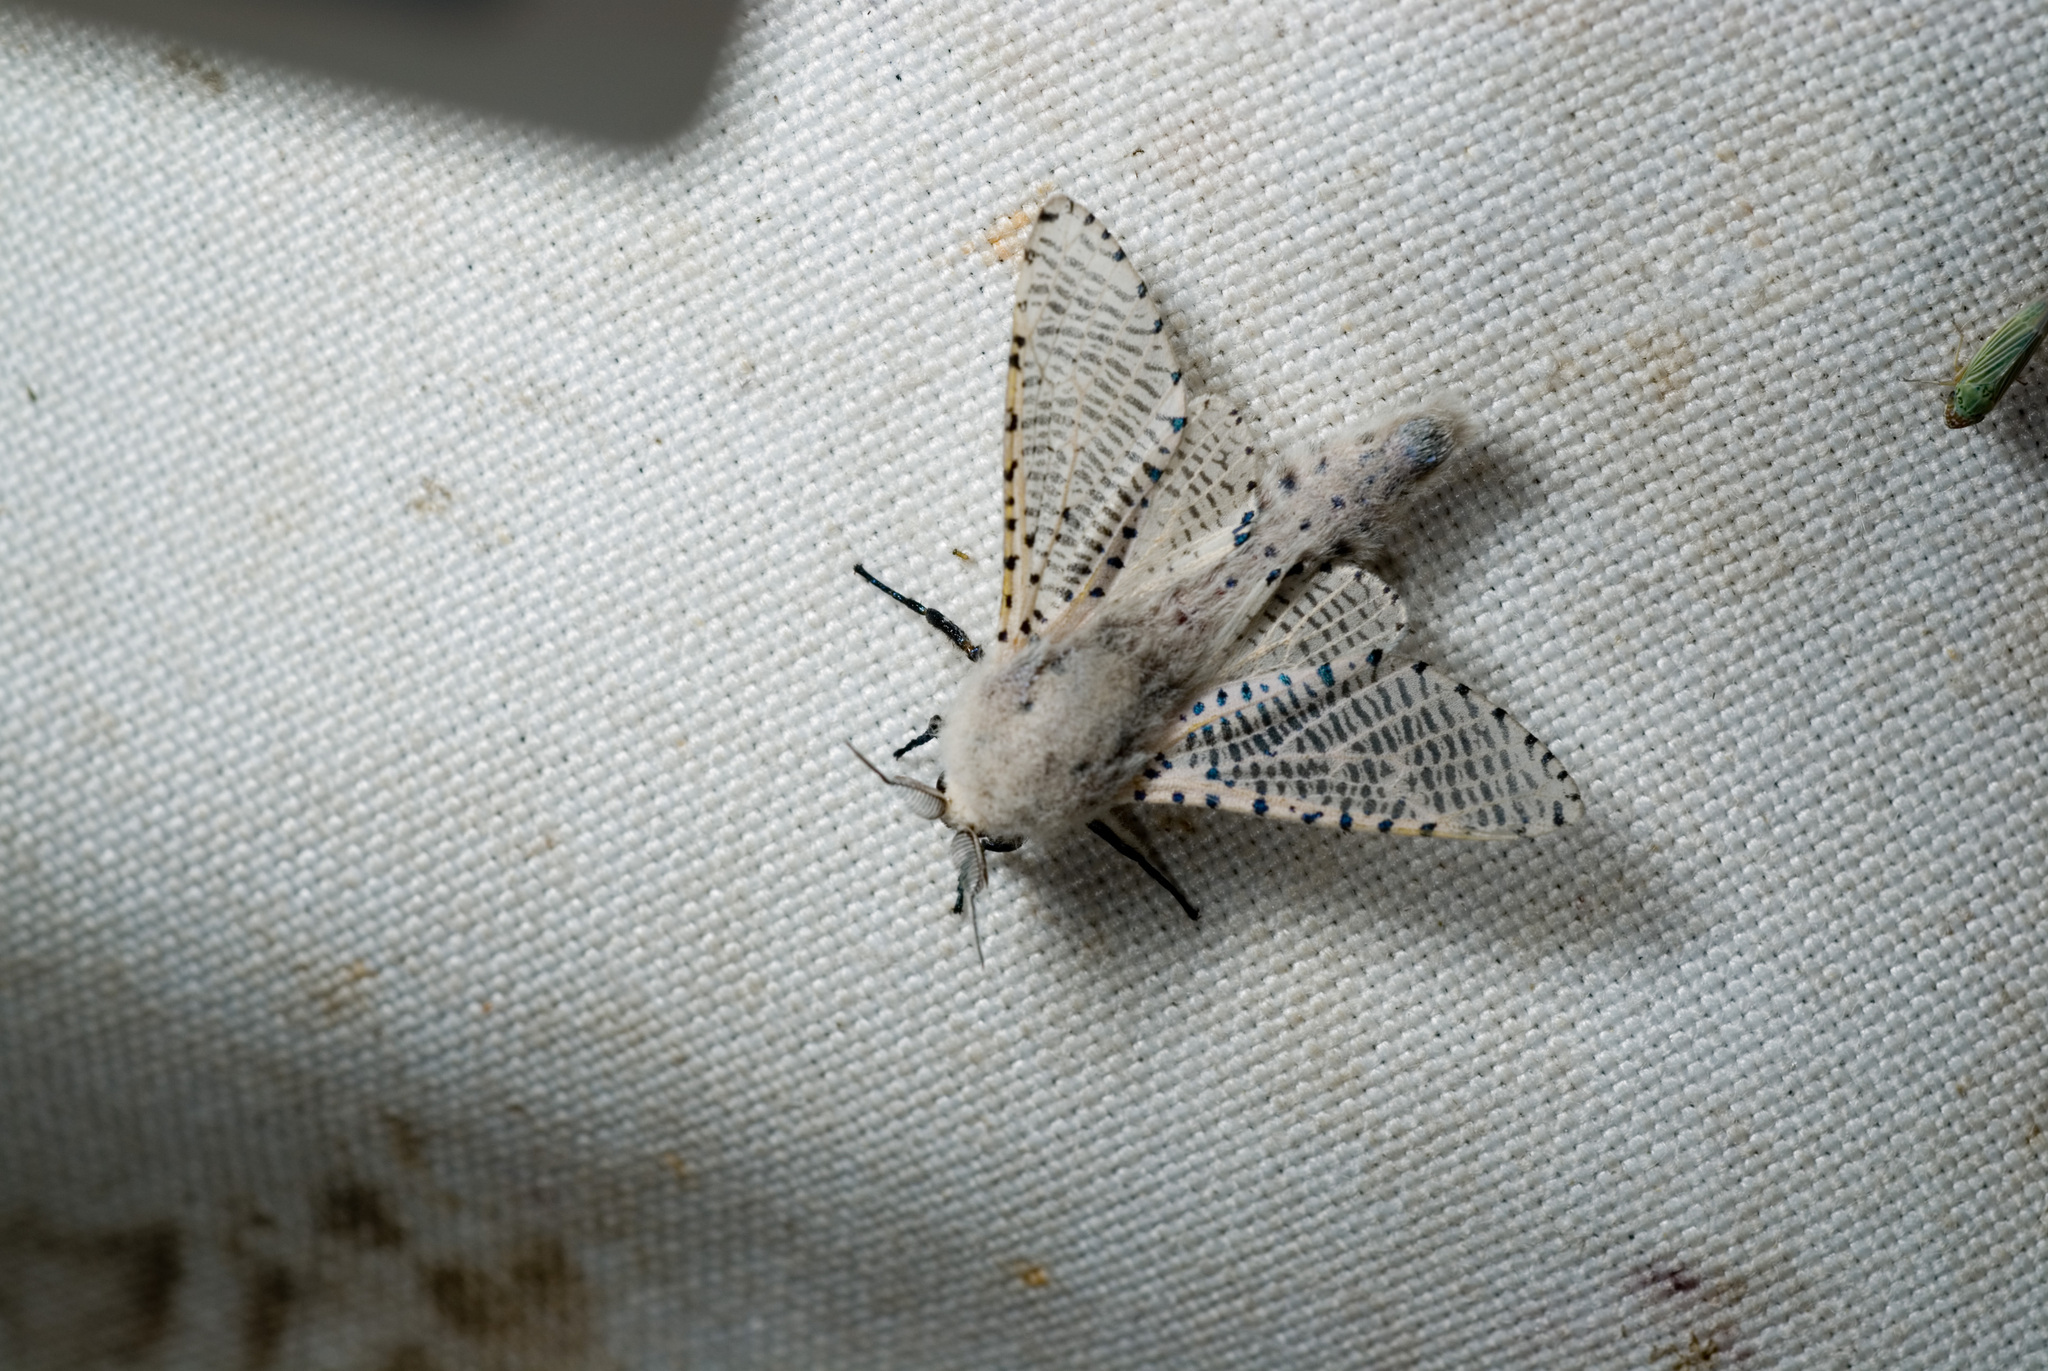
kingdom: Animalia
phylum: Arthropoda
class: Insecta
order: Lepidoptera
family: Cossidae
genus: Polyphagozerra
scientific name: Polyphagozerra coffeae
